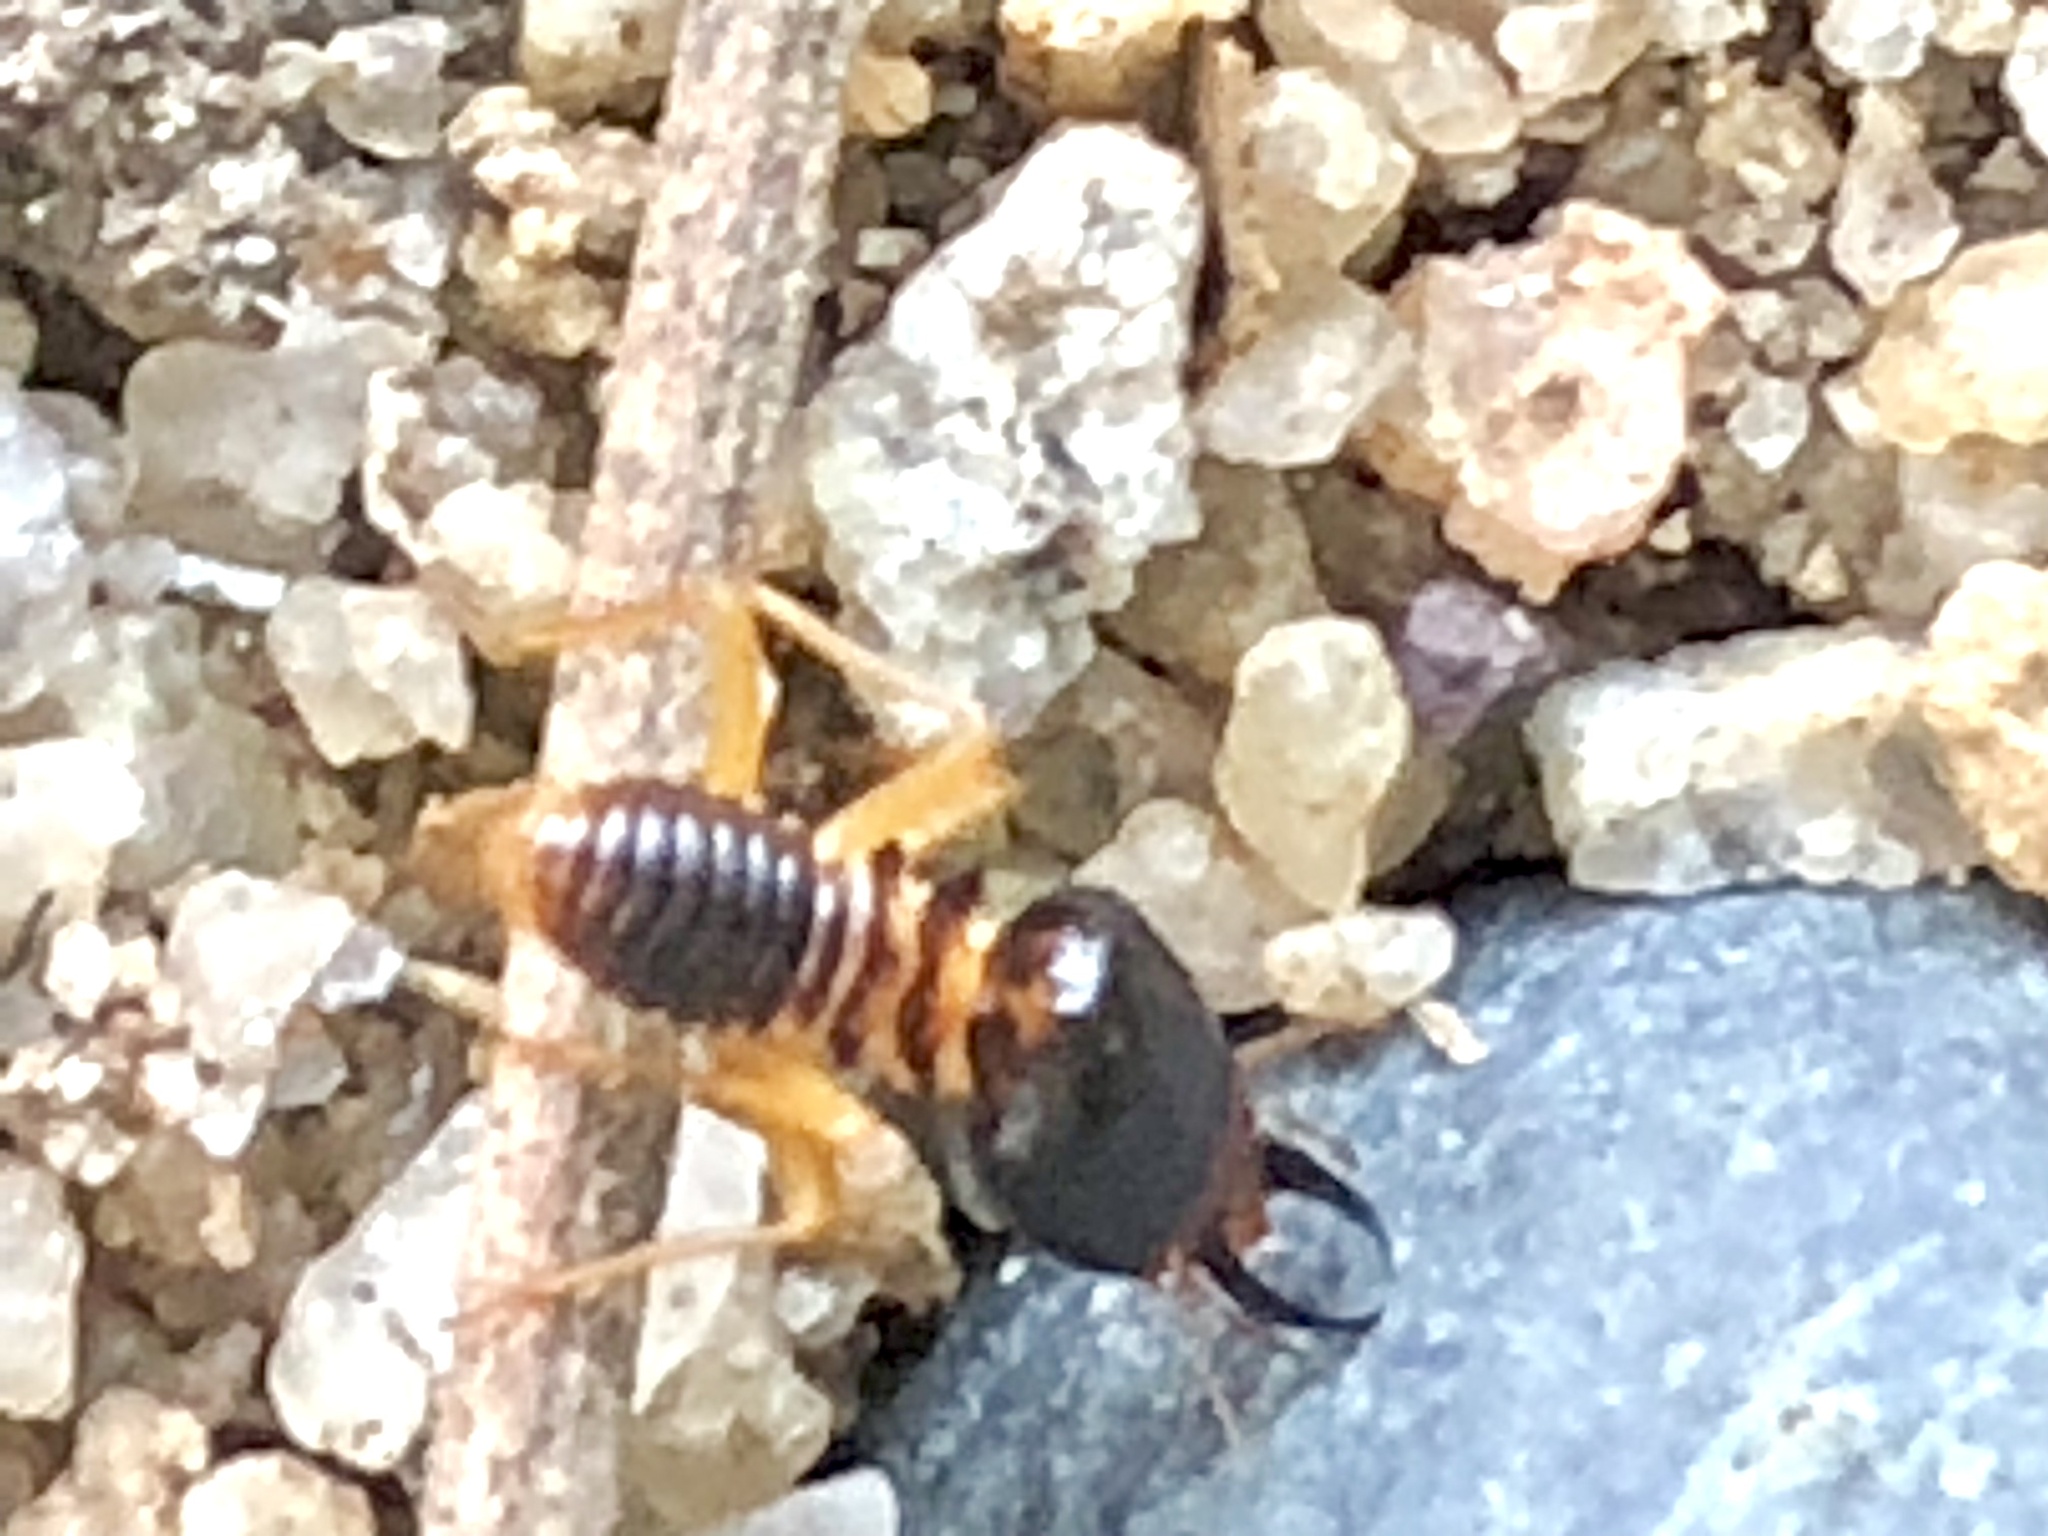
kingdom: Animalia
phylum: Arthropoda
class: Insecta
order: Blattodea
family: Termitidae
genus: Macrotermes
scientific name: Macrotermes carbonarius
